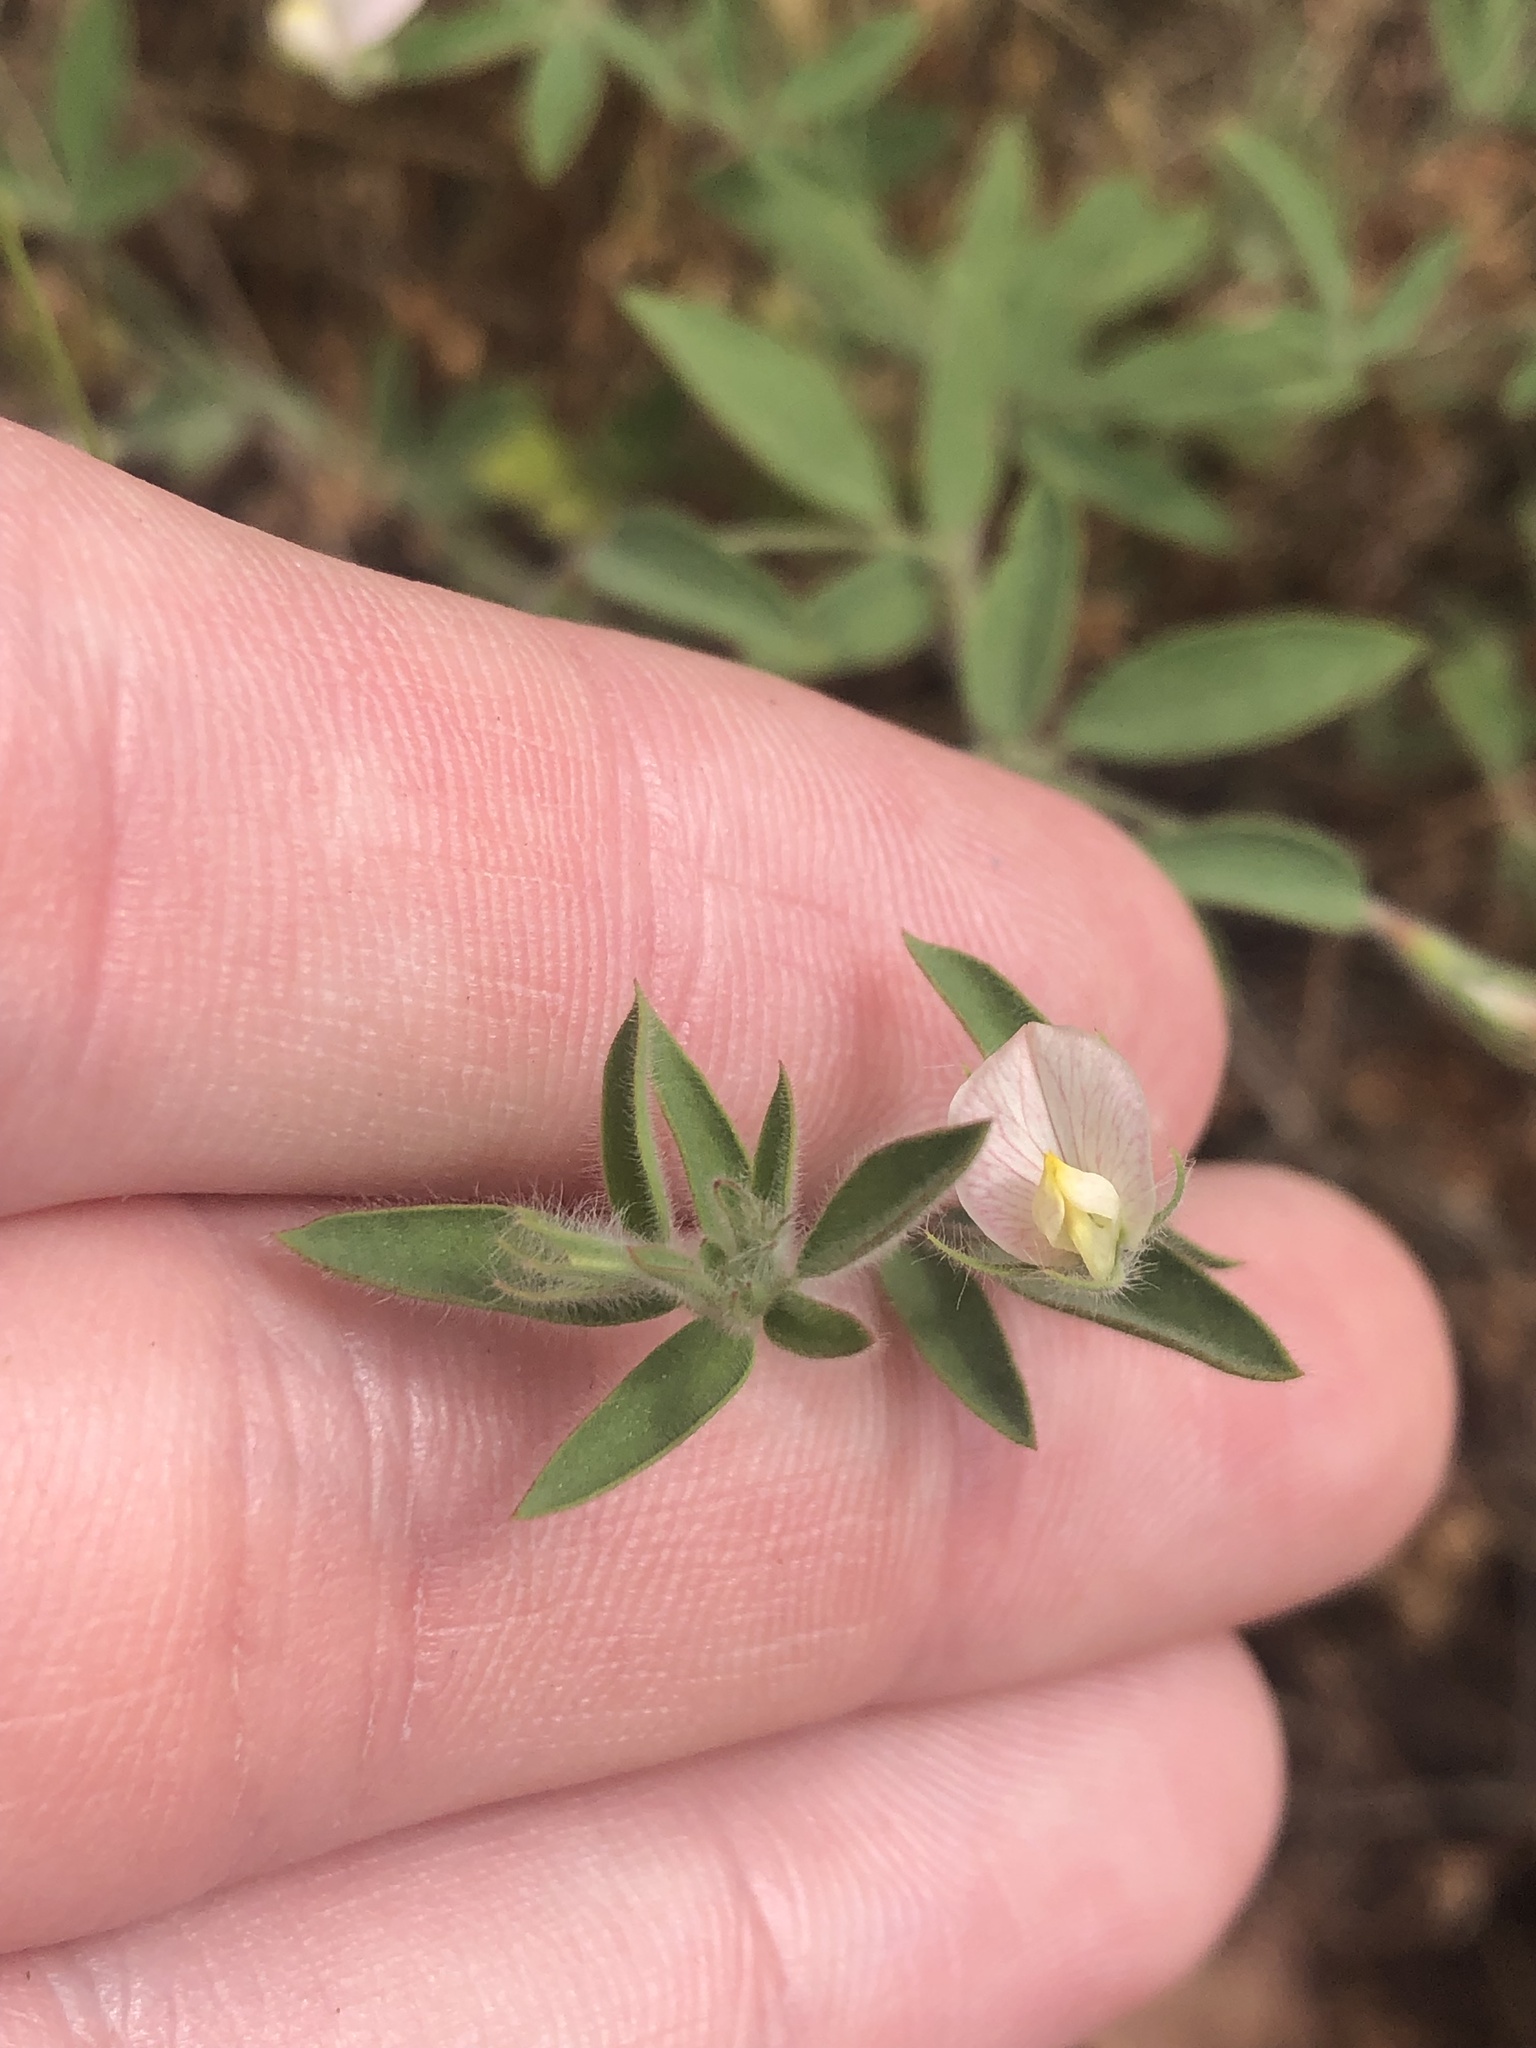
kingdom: Plantae
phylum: Tracheophyta
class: Magnoliopsida
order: Fabales
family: Fabaceae
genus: Acmispon
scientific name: Acmispon americanus
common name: American bird's-foot trefoil
